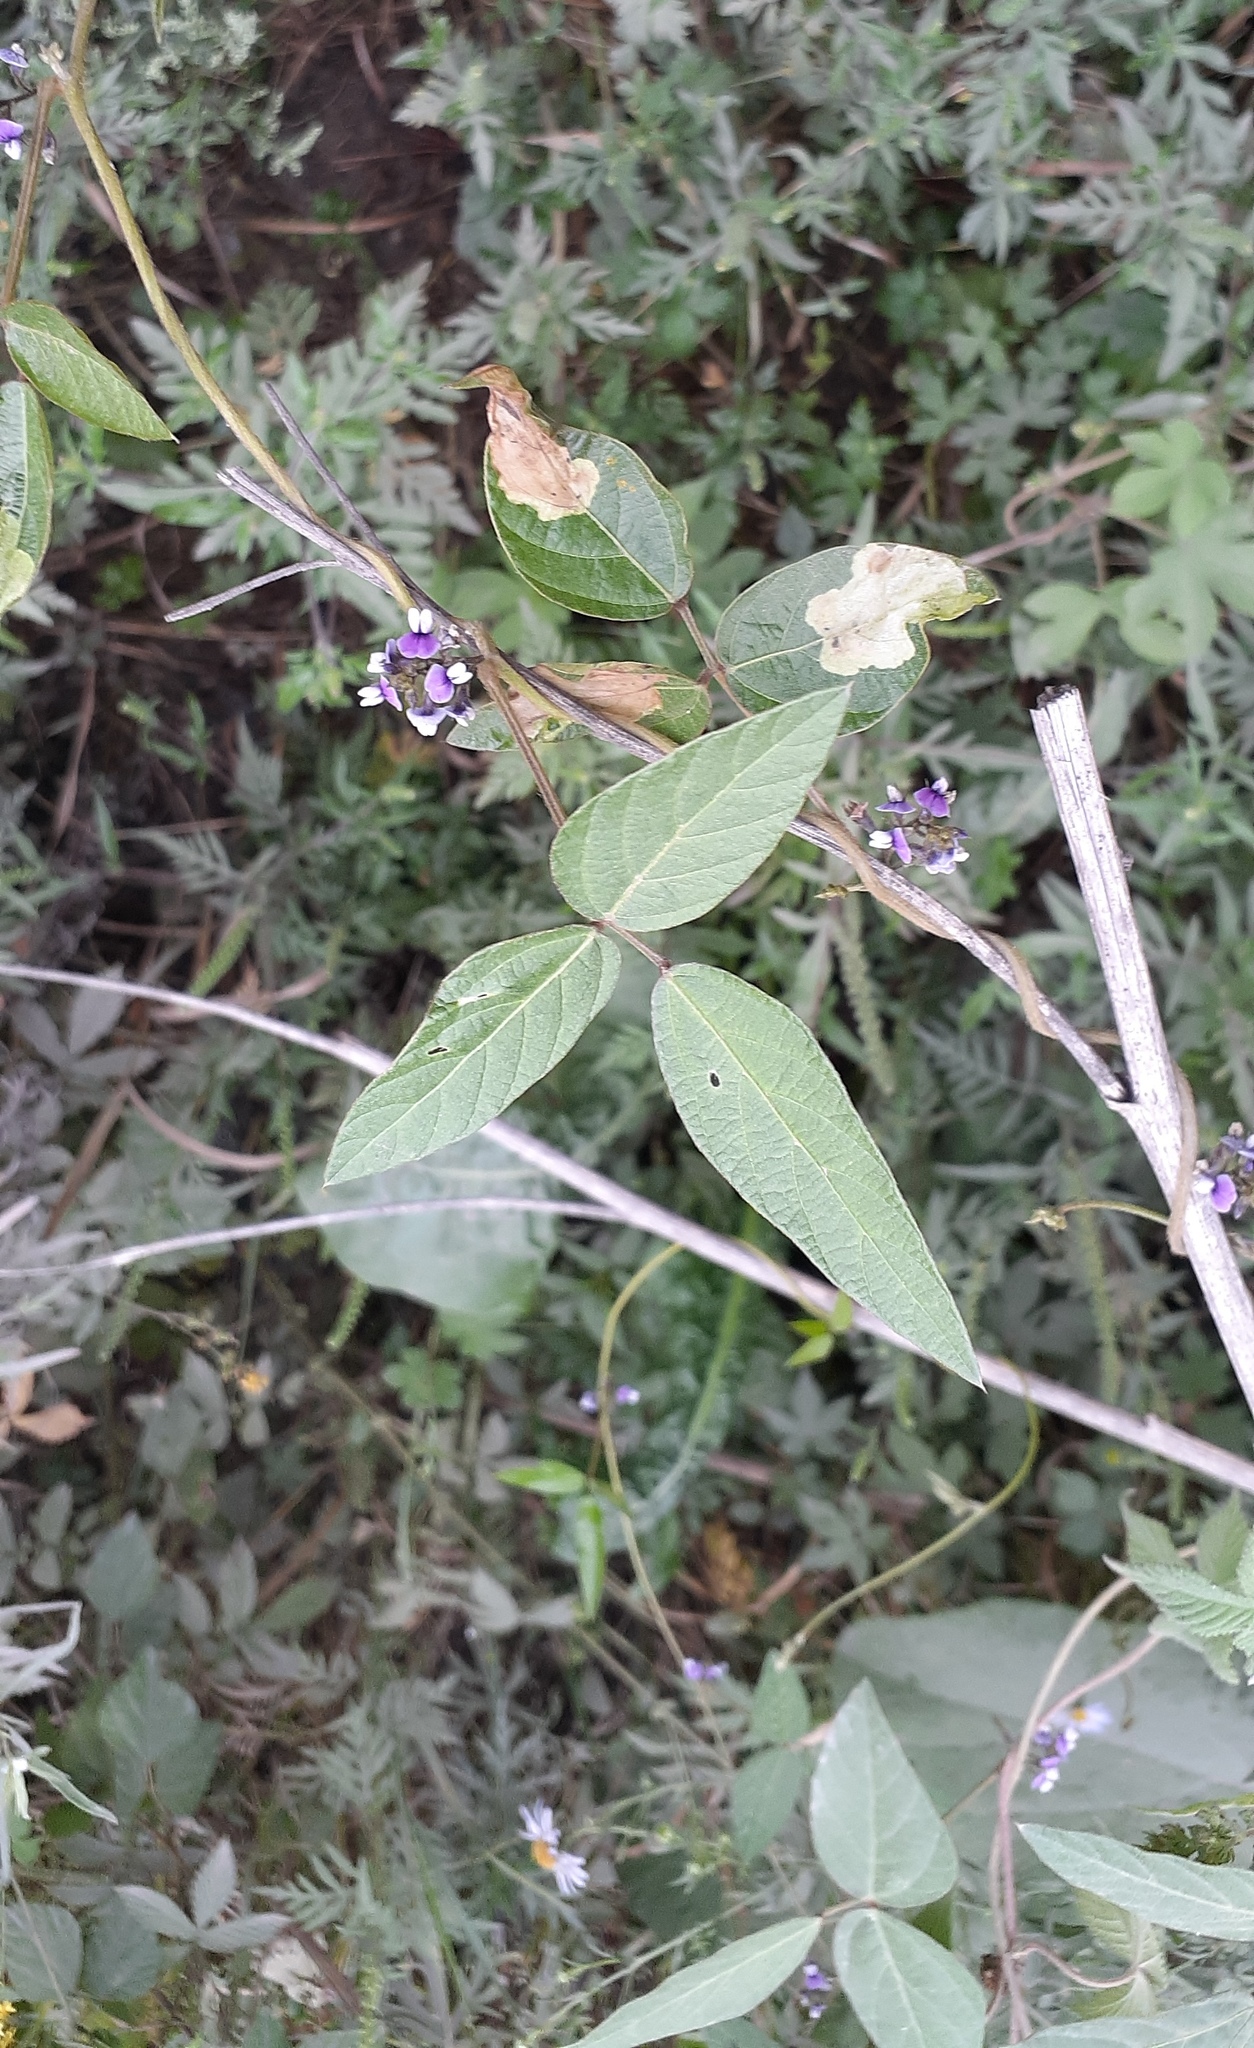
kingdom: Plantae
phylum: Tracheophyta
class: Magnoliopsida
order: Fabales
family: Fabaceae
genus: Glycine
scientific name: Glycine max
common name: Soya-bean
